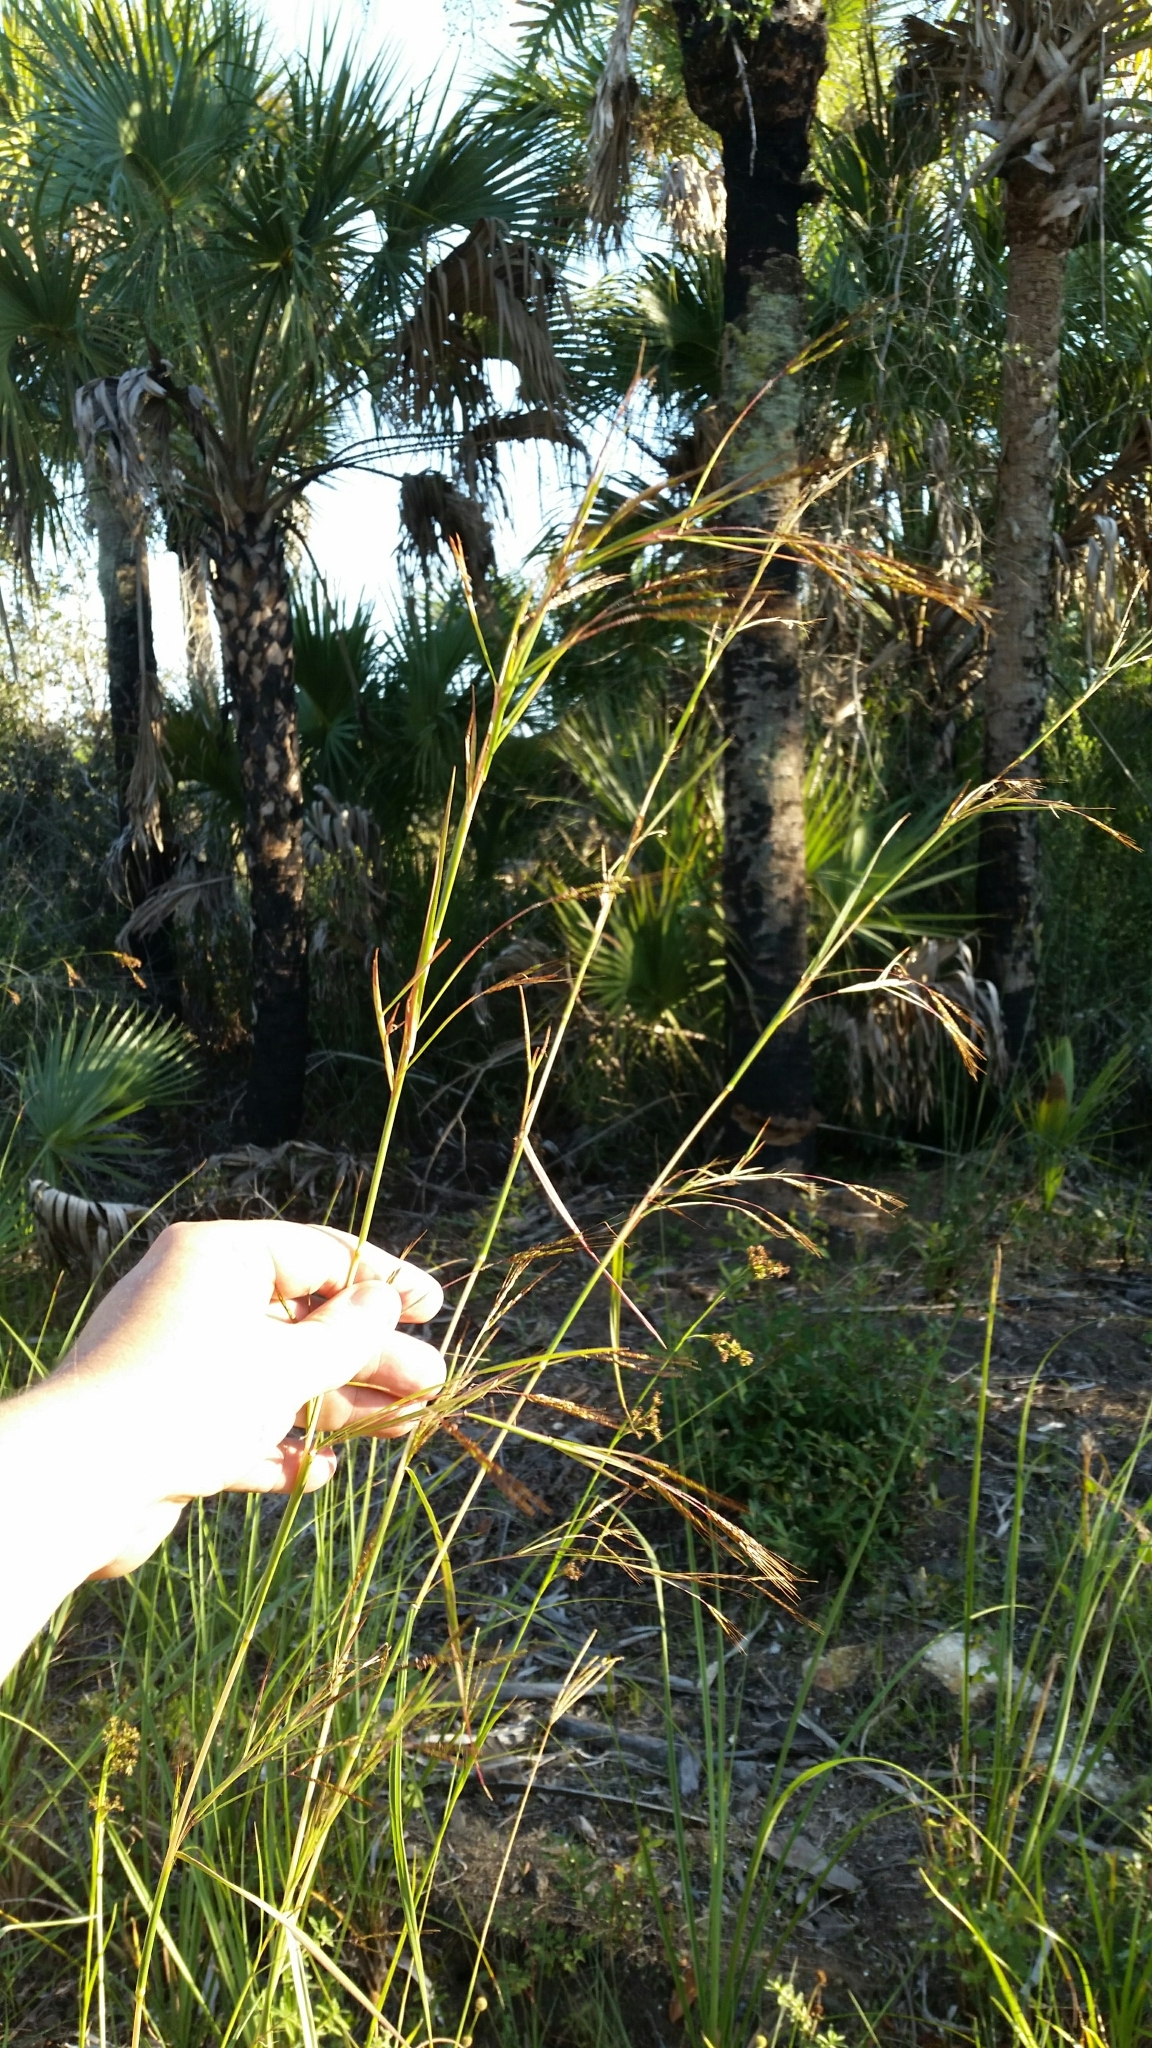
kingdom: Plantae
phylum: Tracheophyta
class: Liliopsida
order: Poales
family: Poaceae
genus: Hyparrhenia
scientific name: Hyparrhenia rufa
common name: Jaraguagrass
